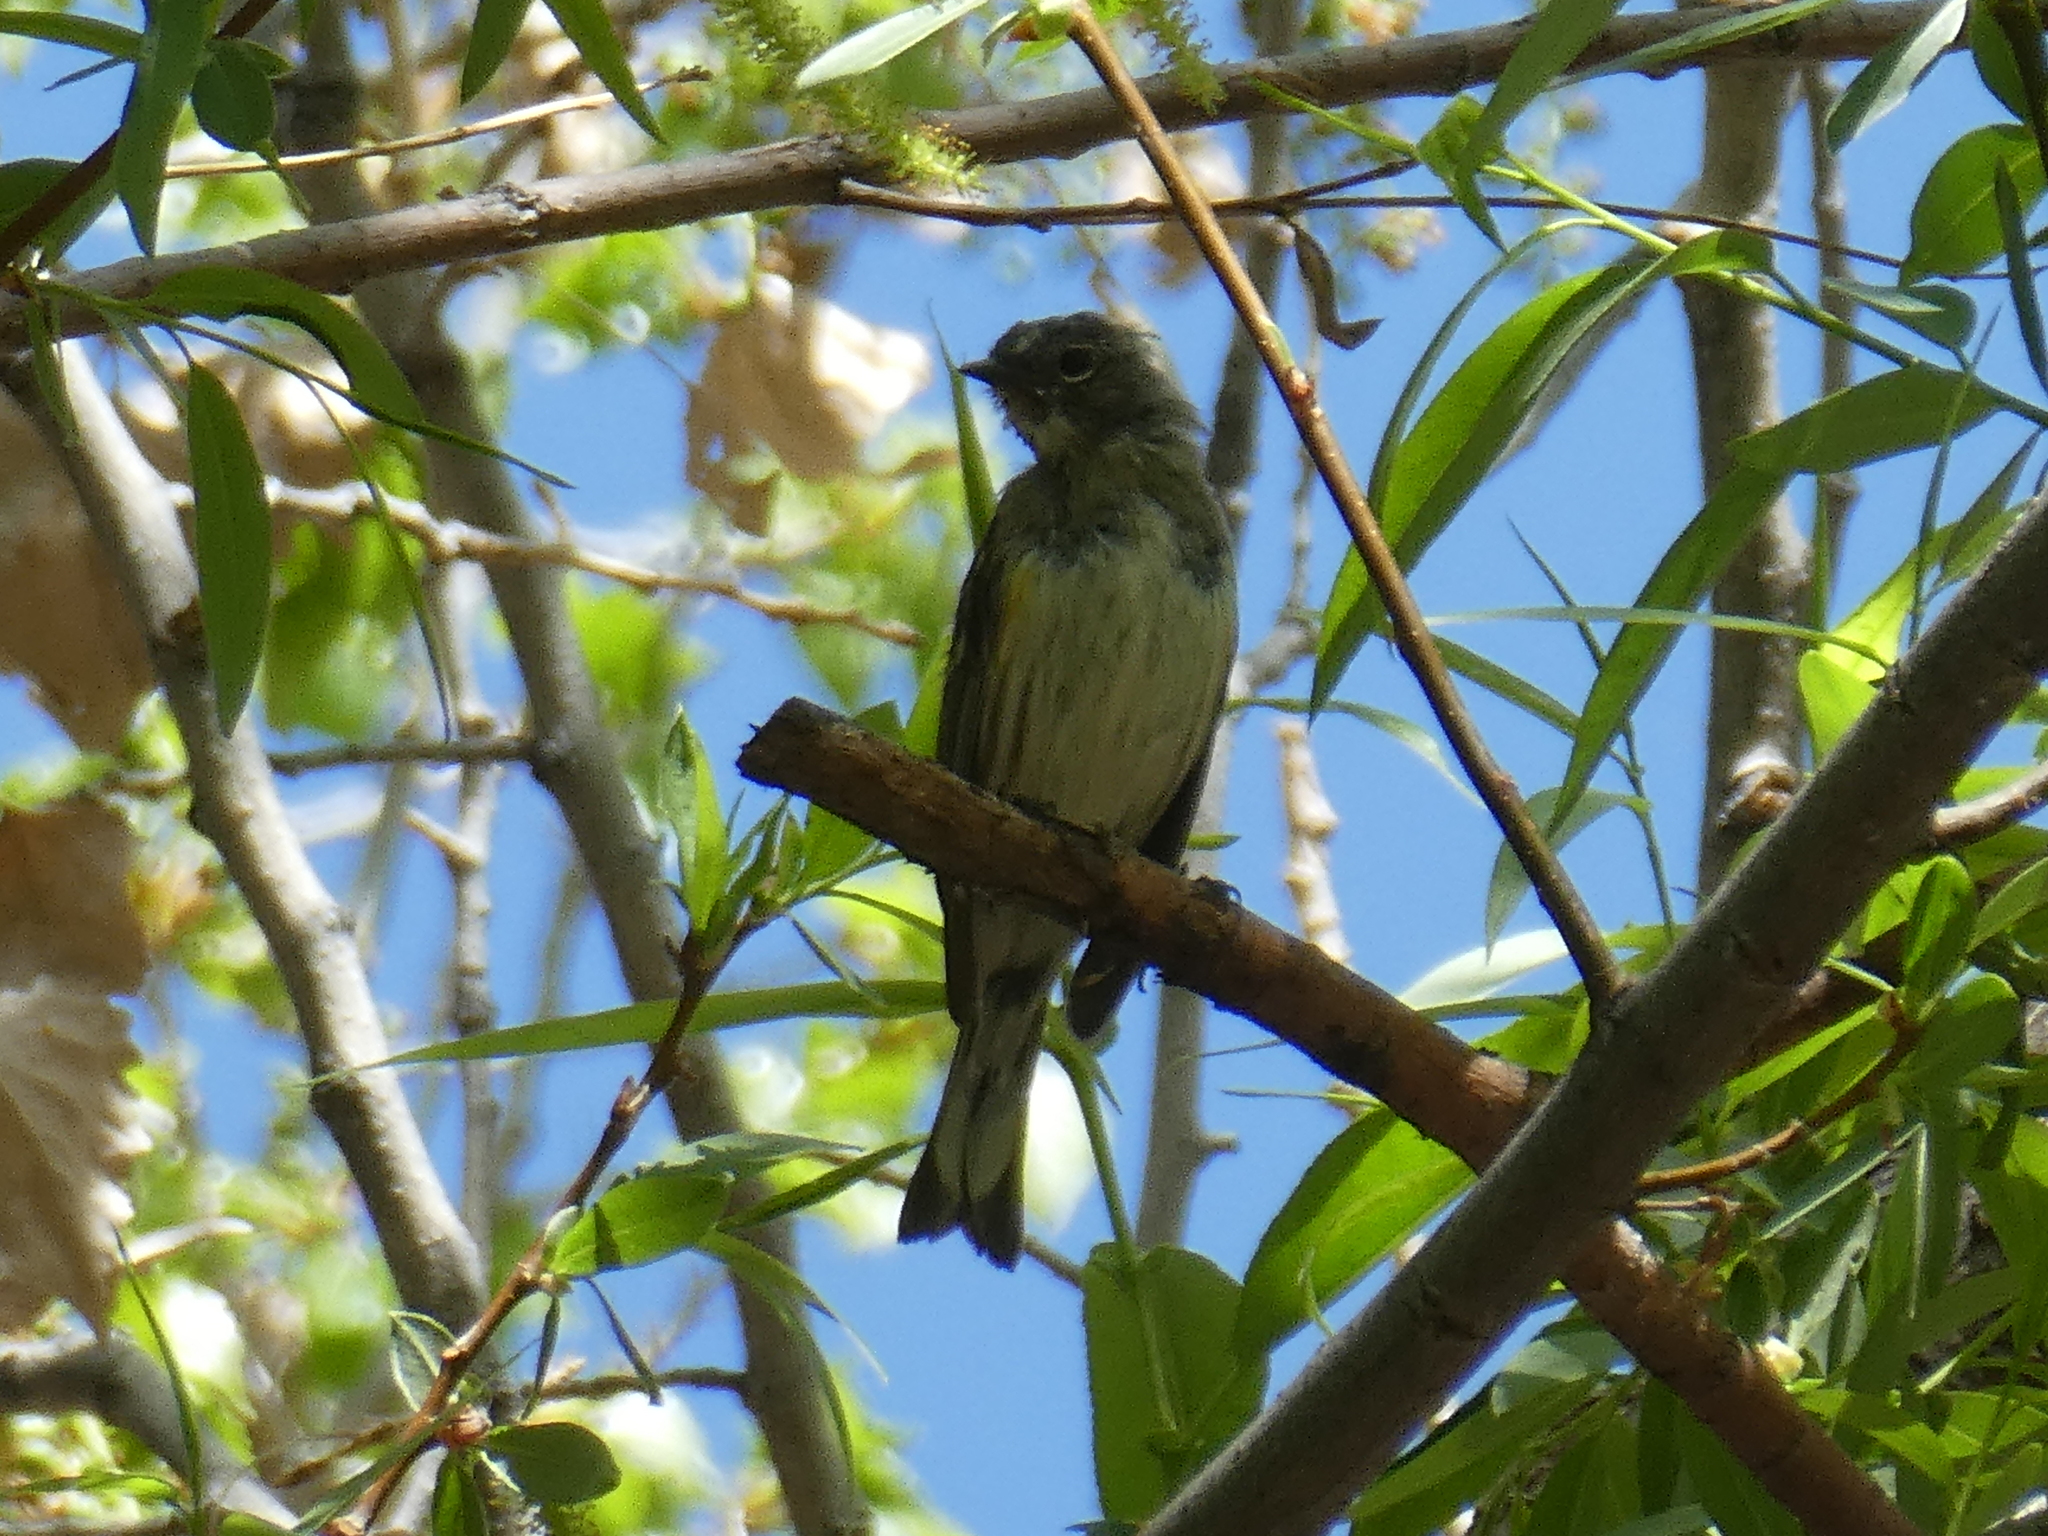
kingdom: Animalia
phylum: Chordata
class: Aves
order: Passeriformes
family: Parulidae
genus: Setophaga
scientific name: Setophaga coronata
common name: Myrtle warbler
